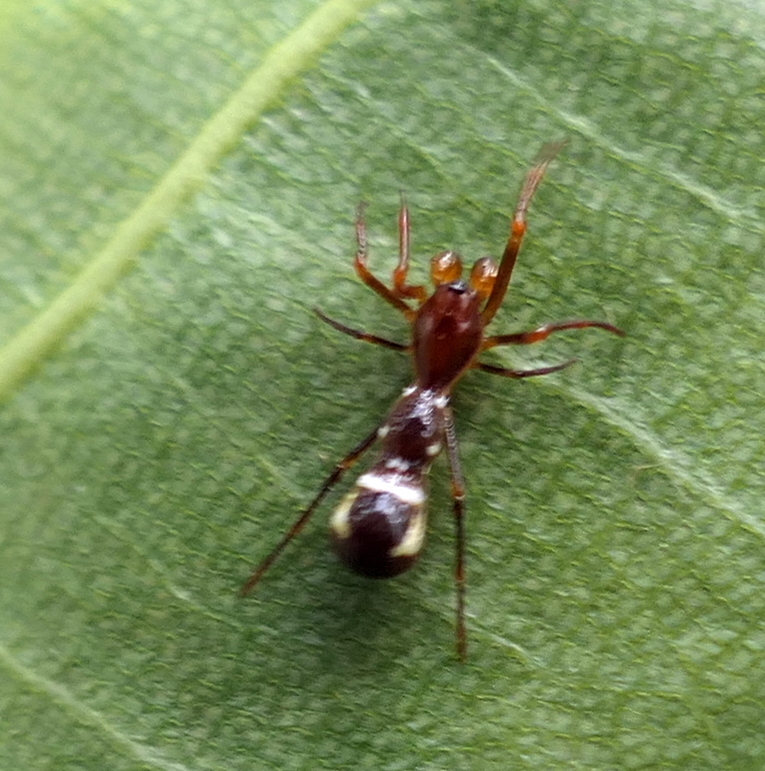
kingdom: Animalia
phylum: Arthropoda
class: Arachnida
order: Araneae
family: Araneidae
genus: Micrathena
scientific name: Micrathena schreibersi
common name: Orb weavers
